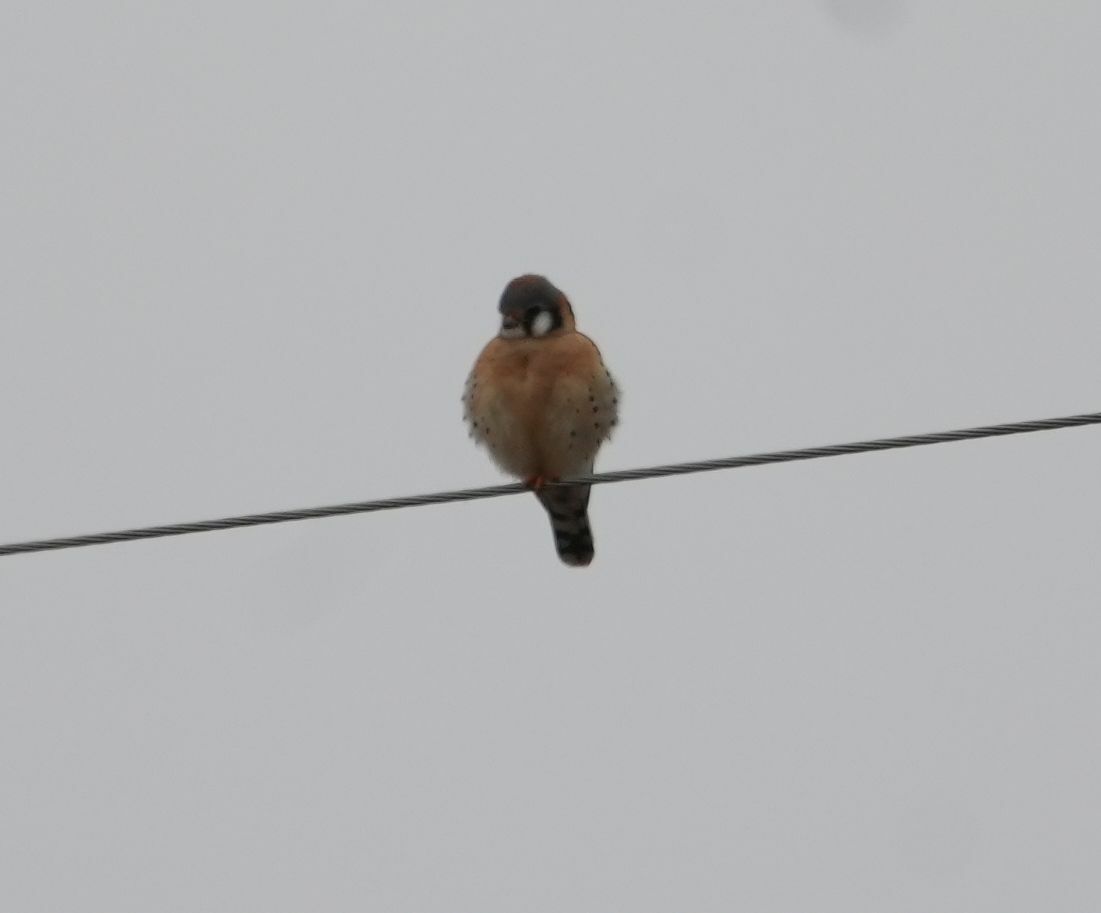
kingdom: Animalia
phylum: Chordata
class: Aves
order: Falconiformes
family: Falconidae
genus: Falco
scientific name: Falco sparverius
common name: American kestrel
